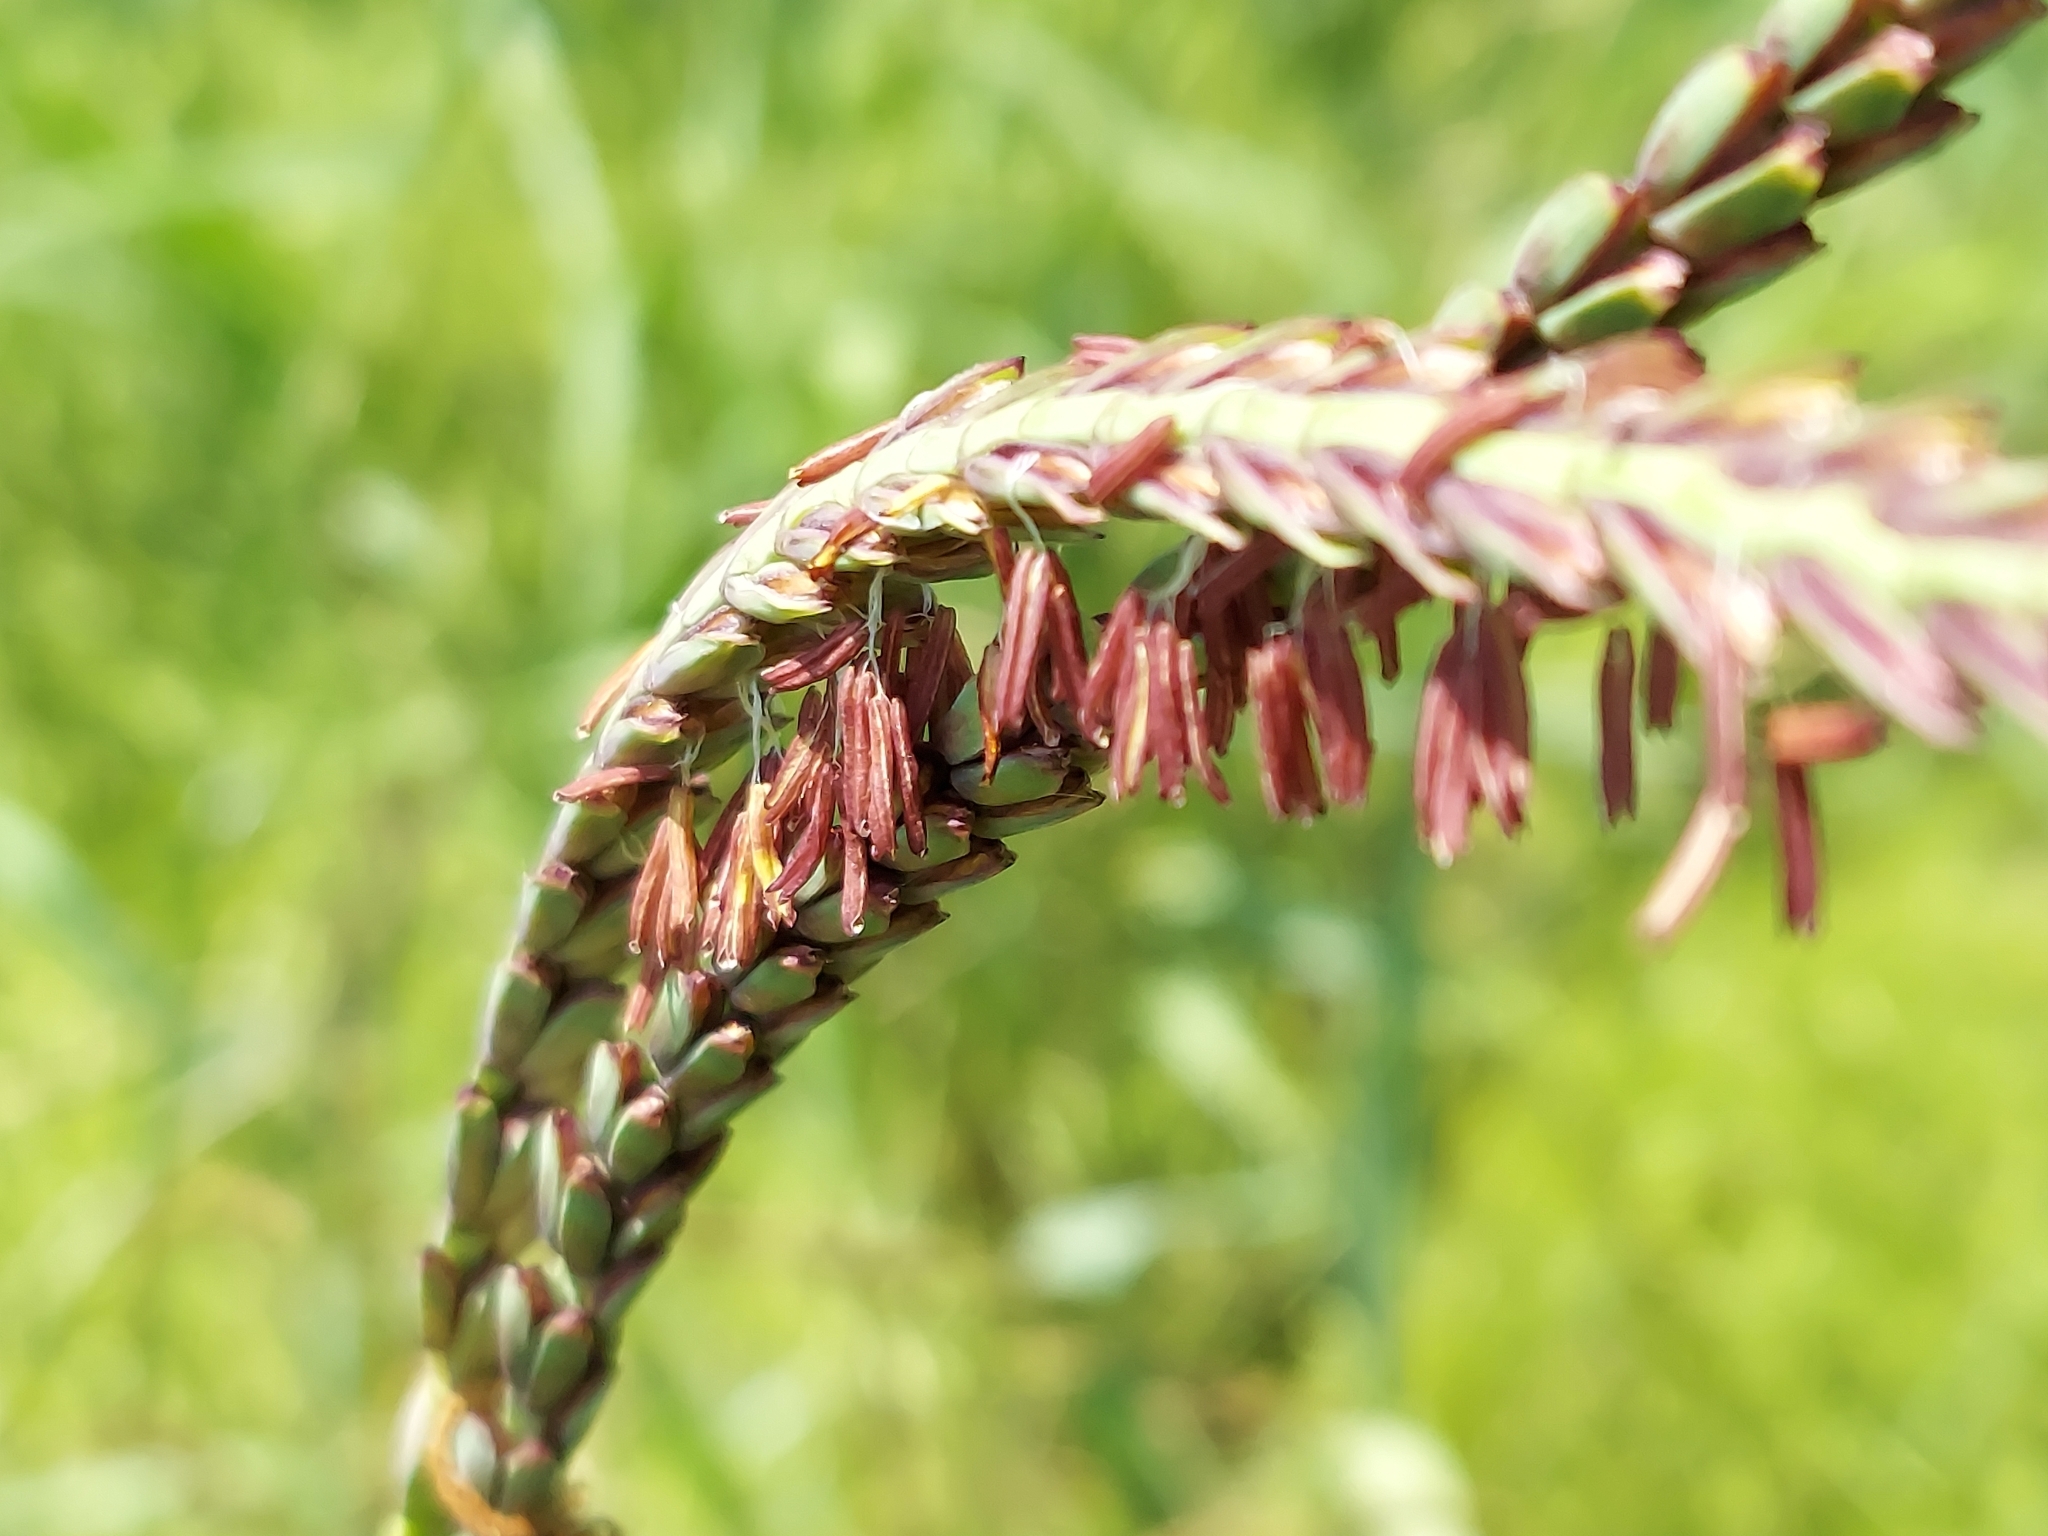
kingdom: Plantae
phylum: Tracheophyta
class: Liliopsida
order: Poales
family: Poaceae
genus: Tripsacum
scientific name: Tripsacum dactyloides
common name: Buffalo-grass
